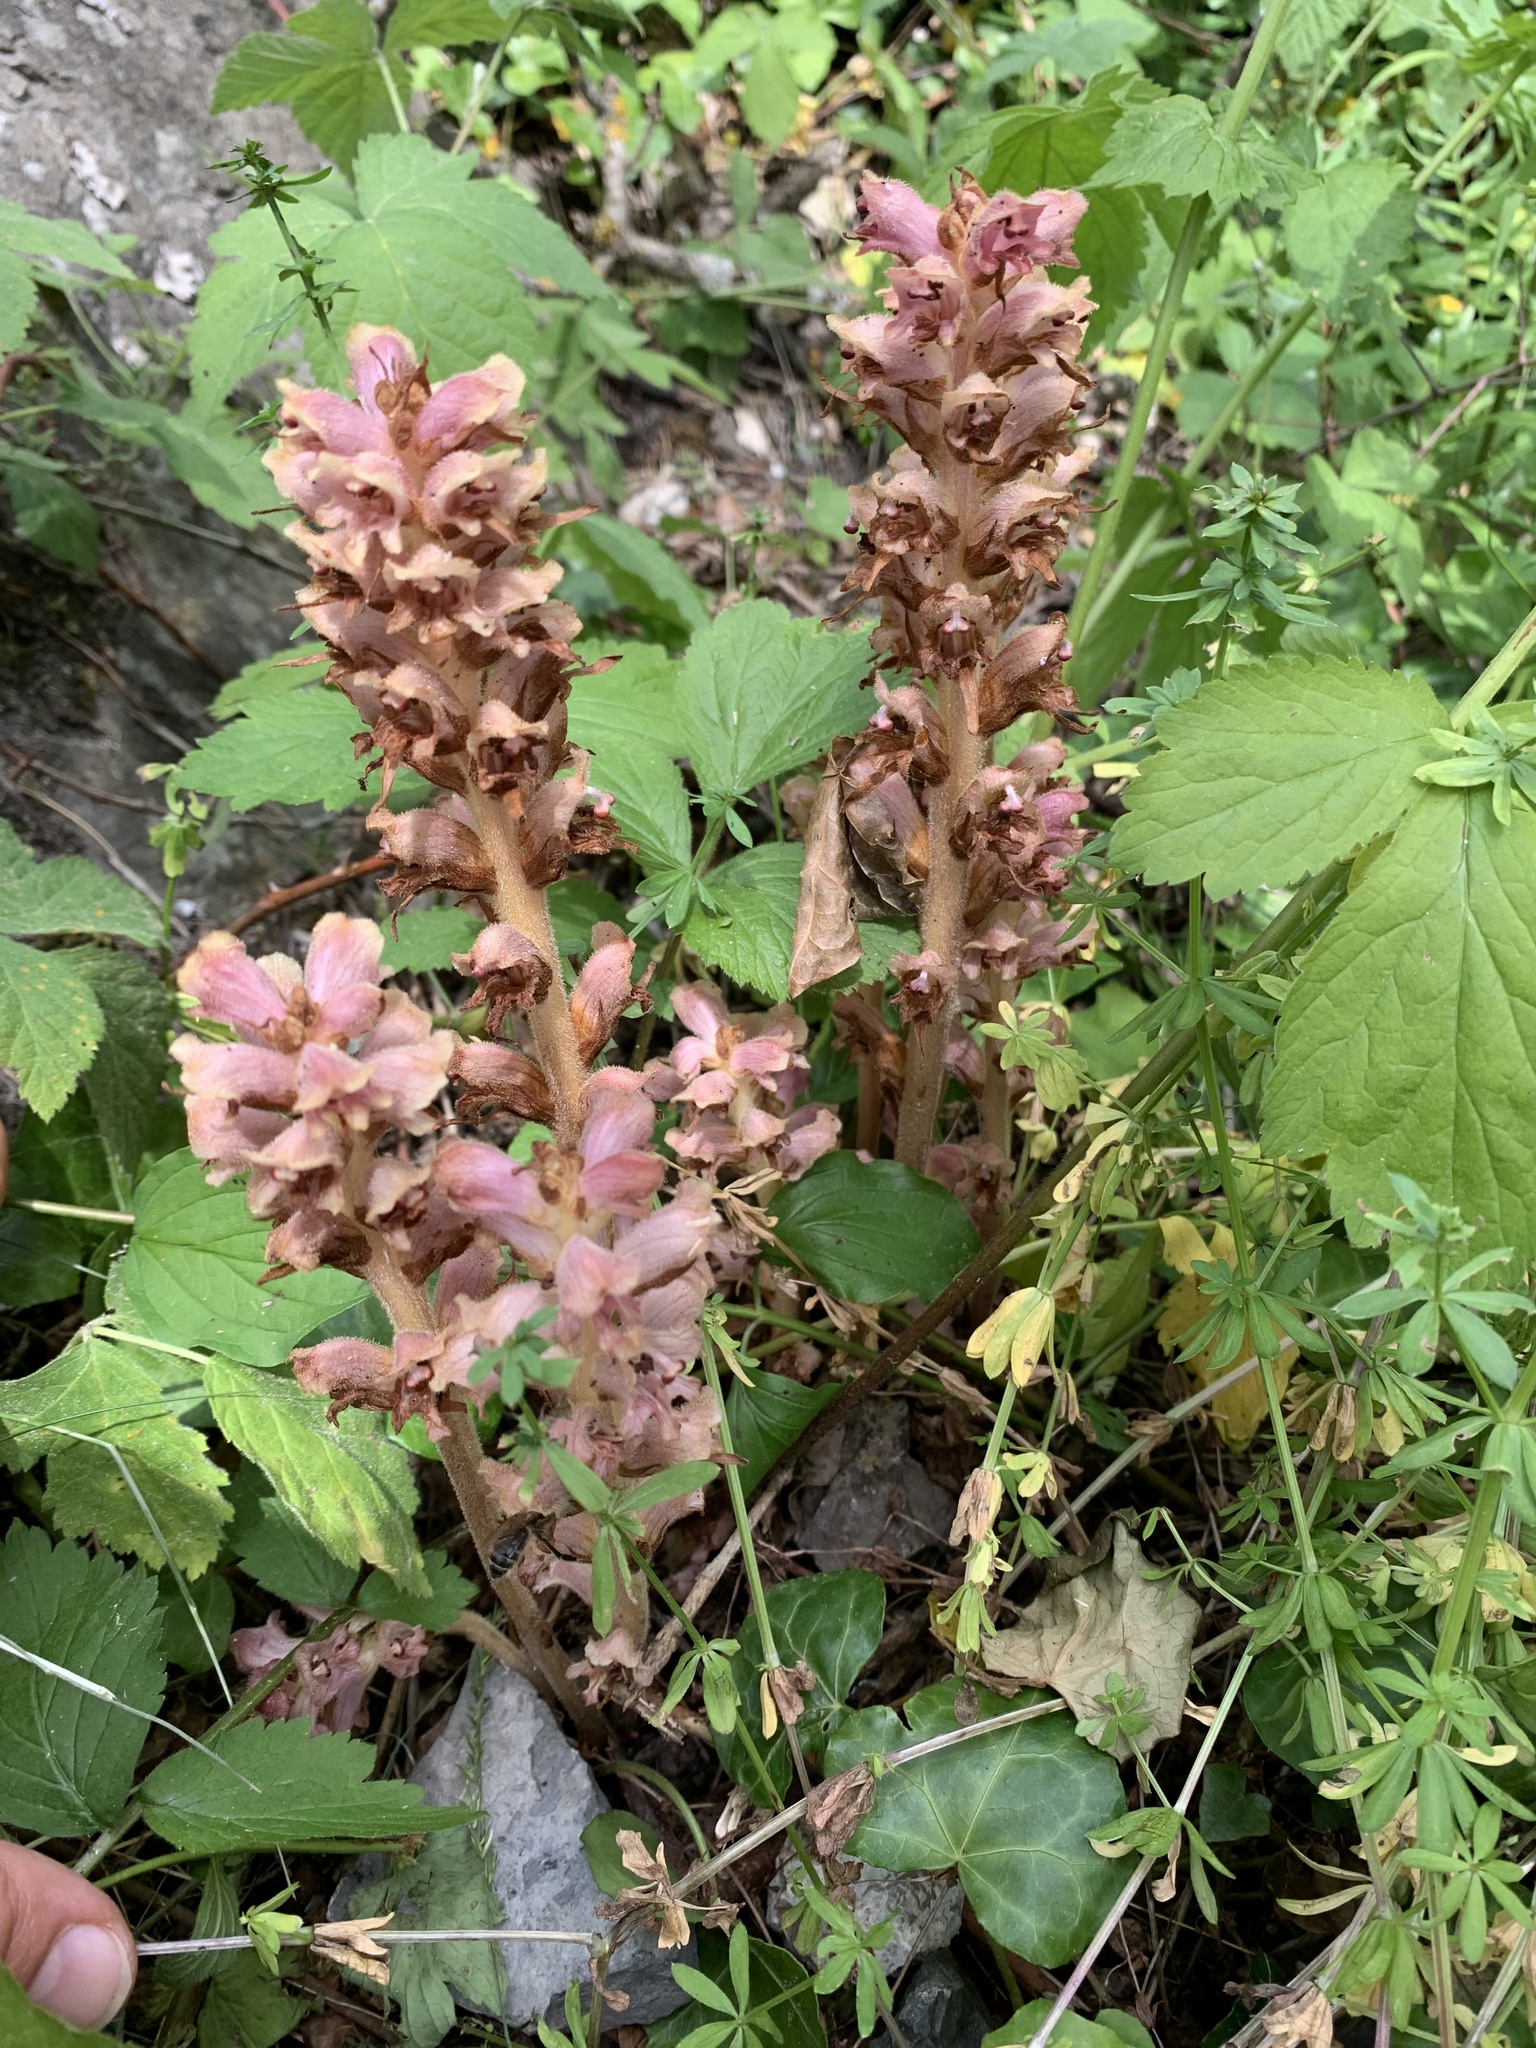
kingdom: Plantae
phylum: Tracheophyta
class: Magnoliopsida
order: Lamiales
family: Orobanchaceae
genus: Orobanche
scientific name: Orobanche caryophyllacea
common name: Bedstraw broomrape
